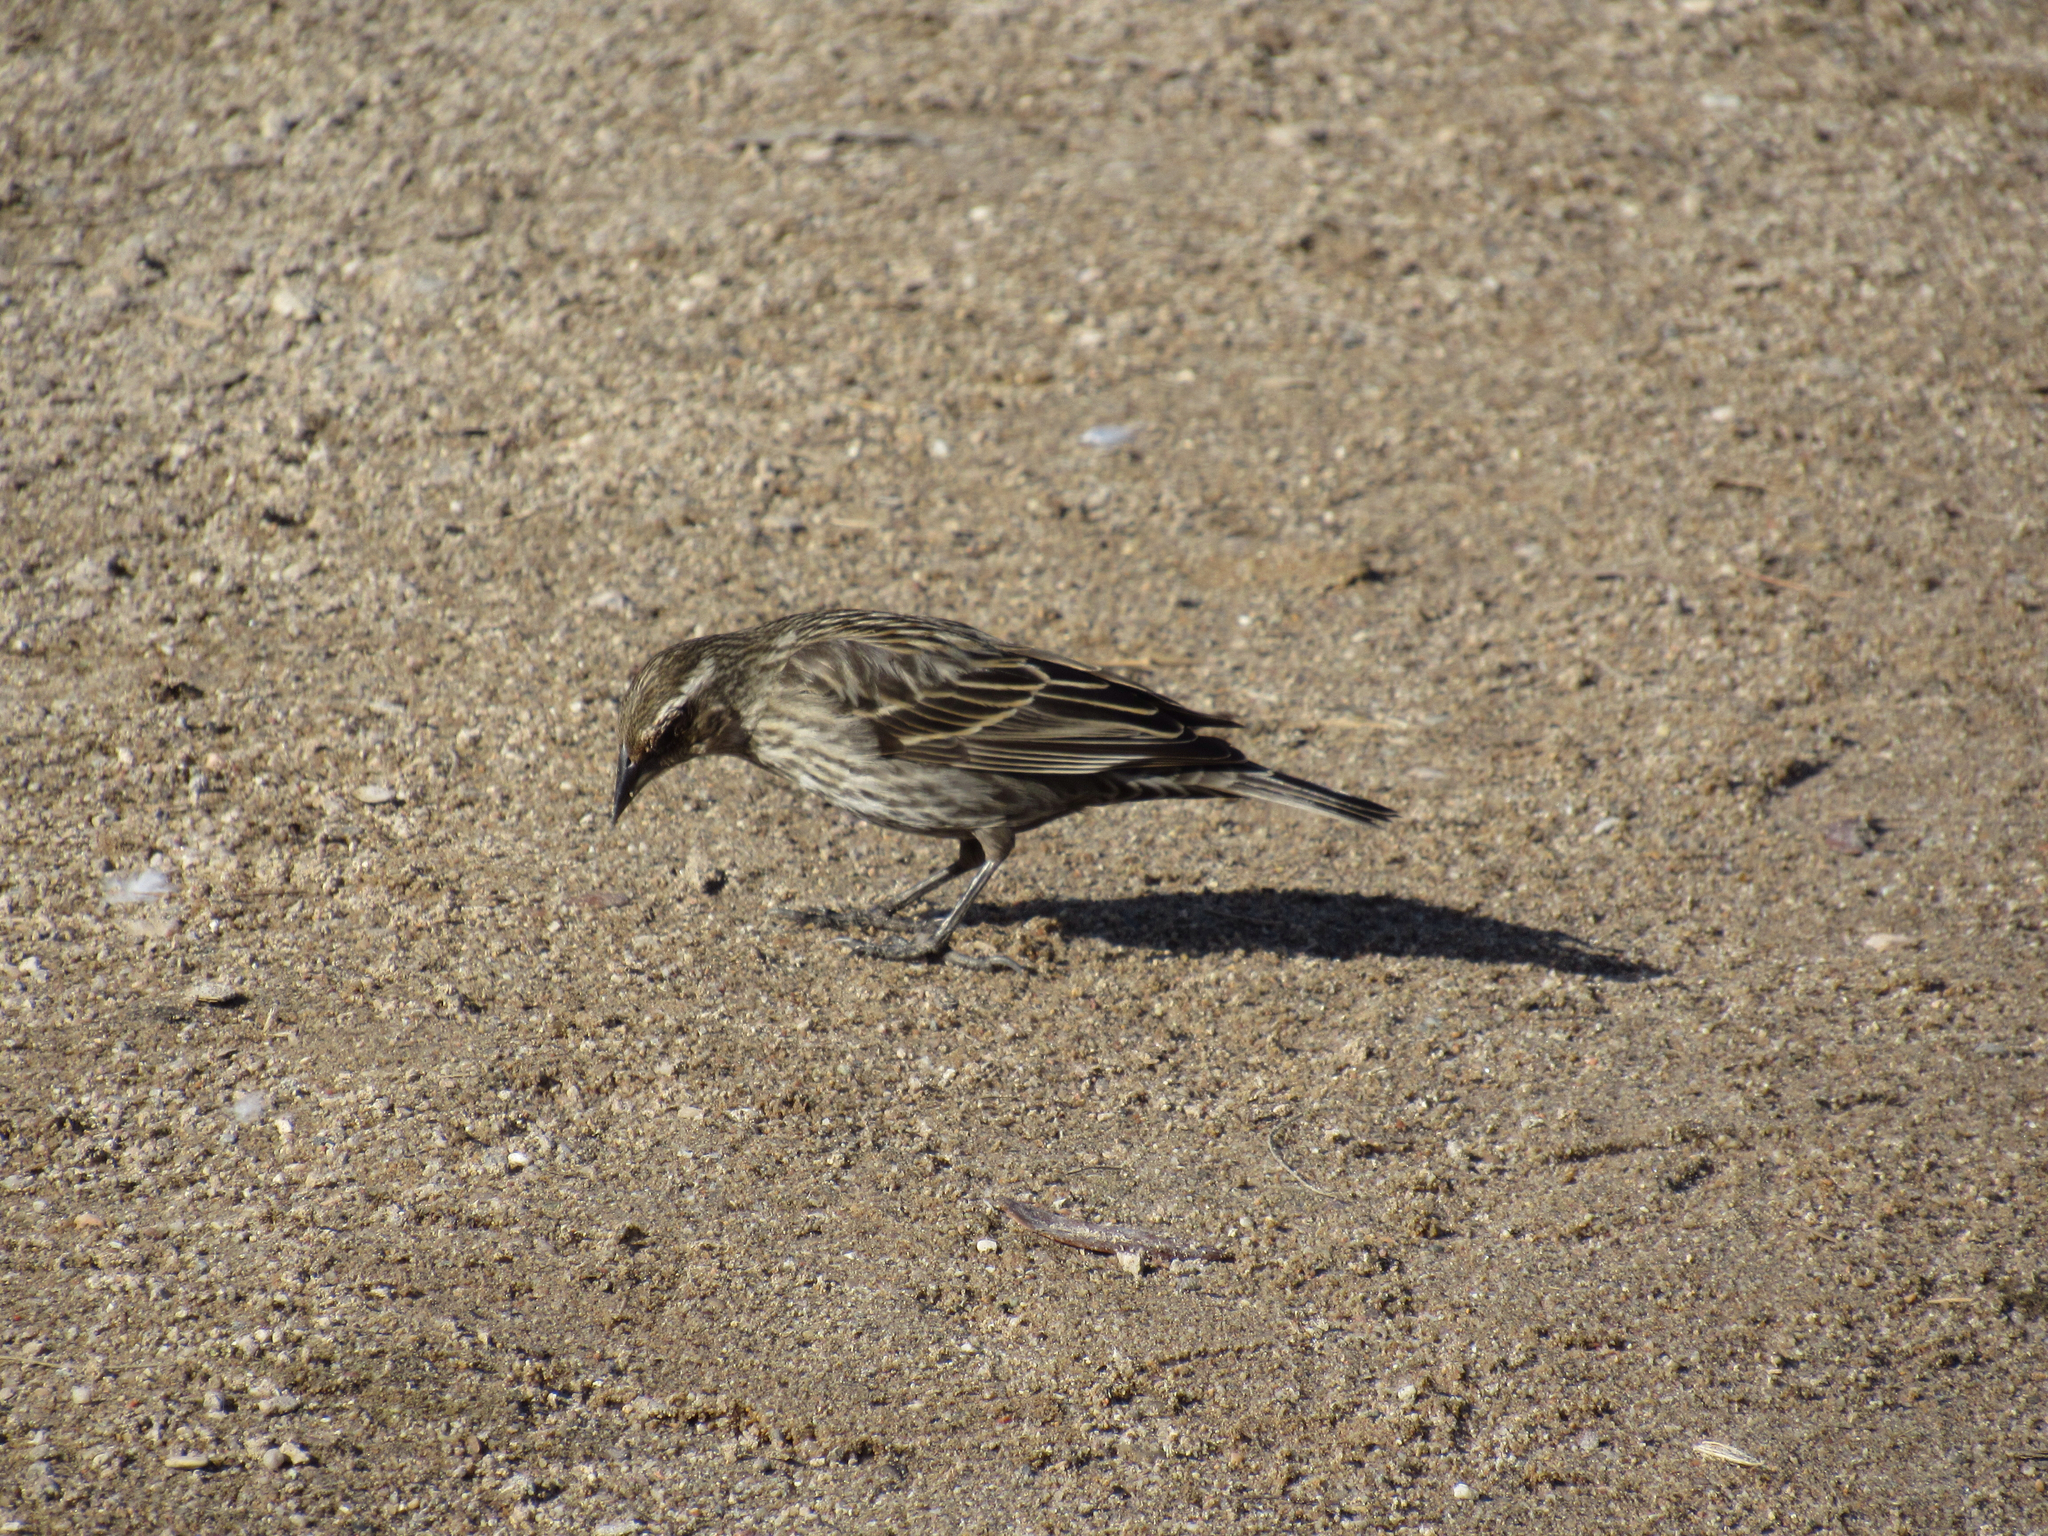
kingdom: Animalia
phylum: Chordata
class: Aves
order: Passeriformes
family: Icteridae
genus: Agelaius
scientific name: Agelaius phoeniceus
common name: Red-winged blackbird
